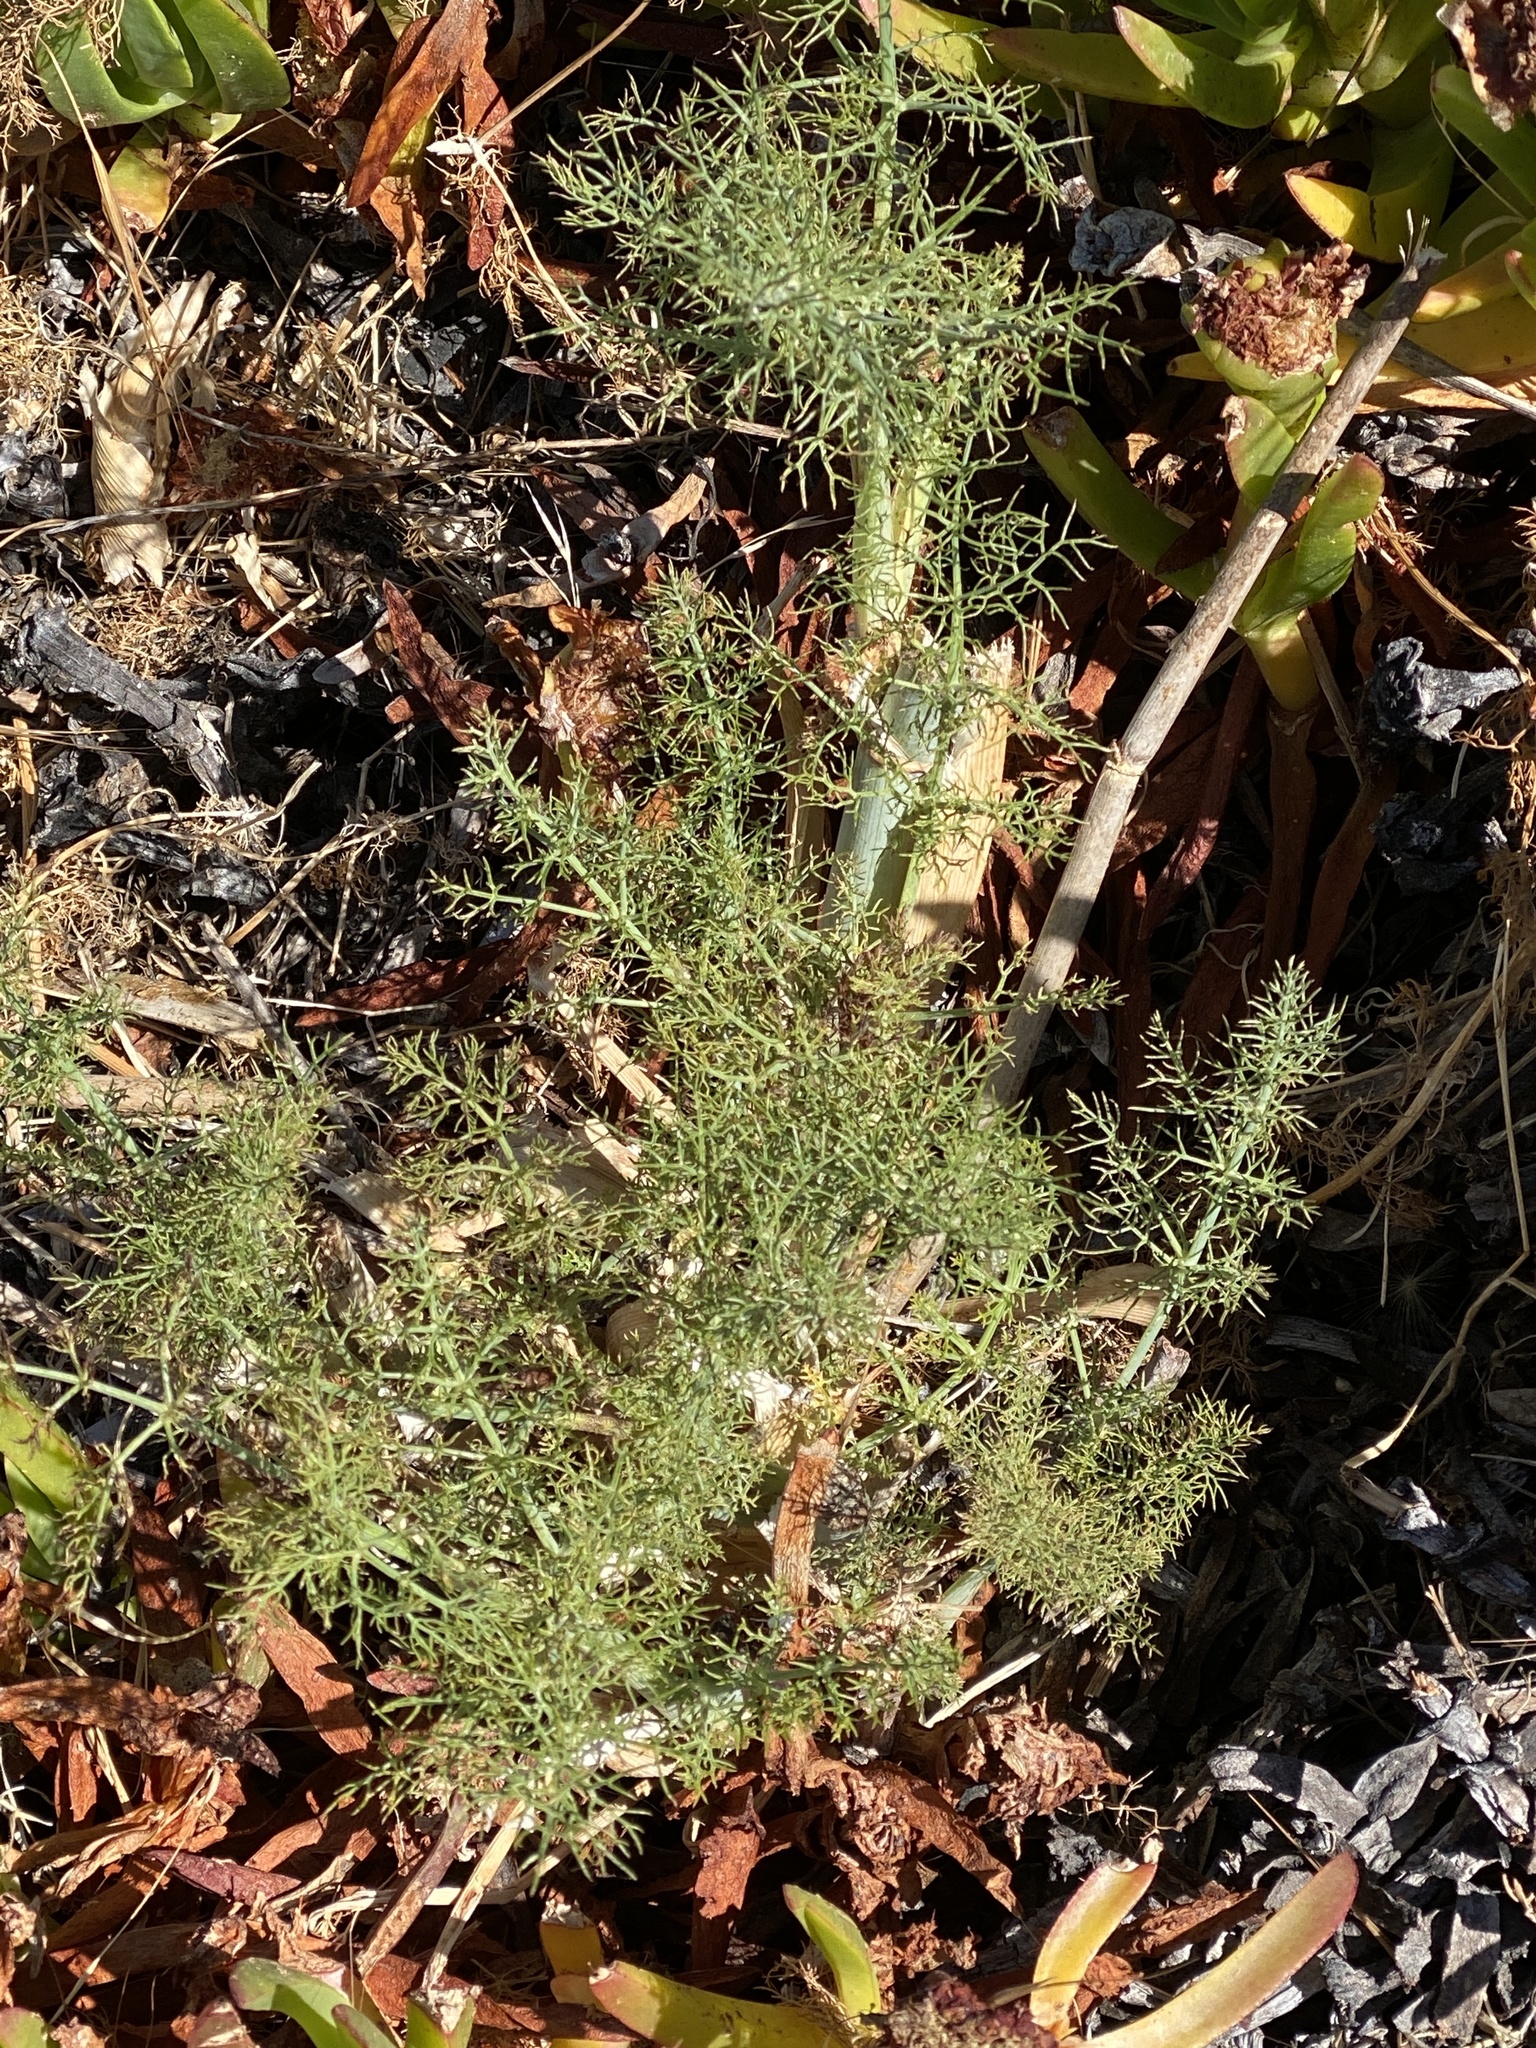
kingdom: Plantae
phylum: Tracheophyta
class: Magnoliopsida
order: Apiales
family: Apiaceae
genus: Foeniculum
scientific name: Foeniculum vulgare
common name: Fennel
